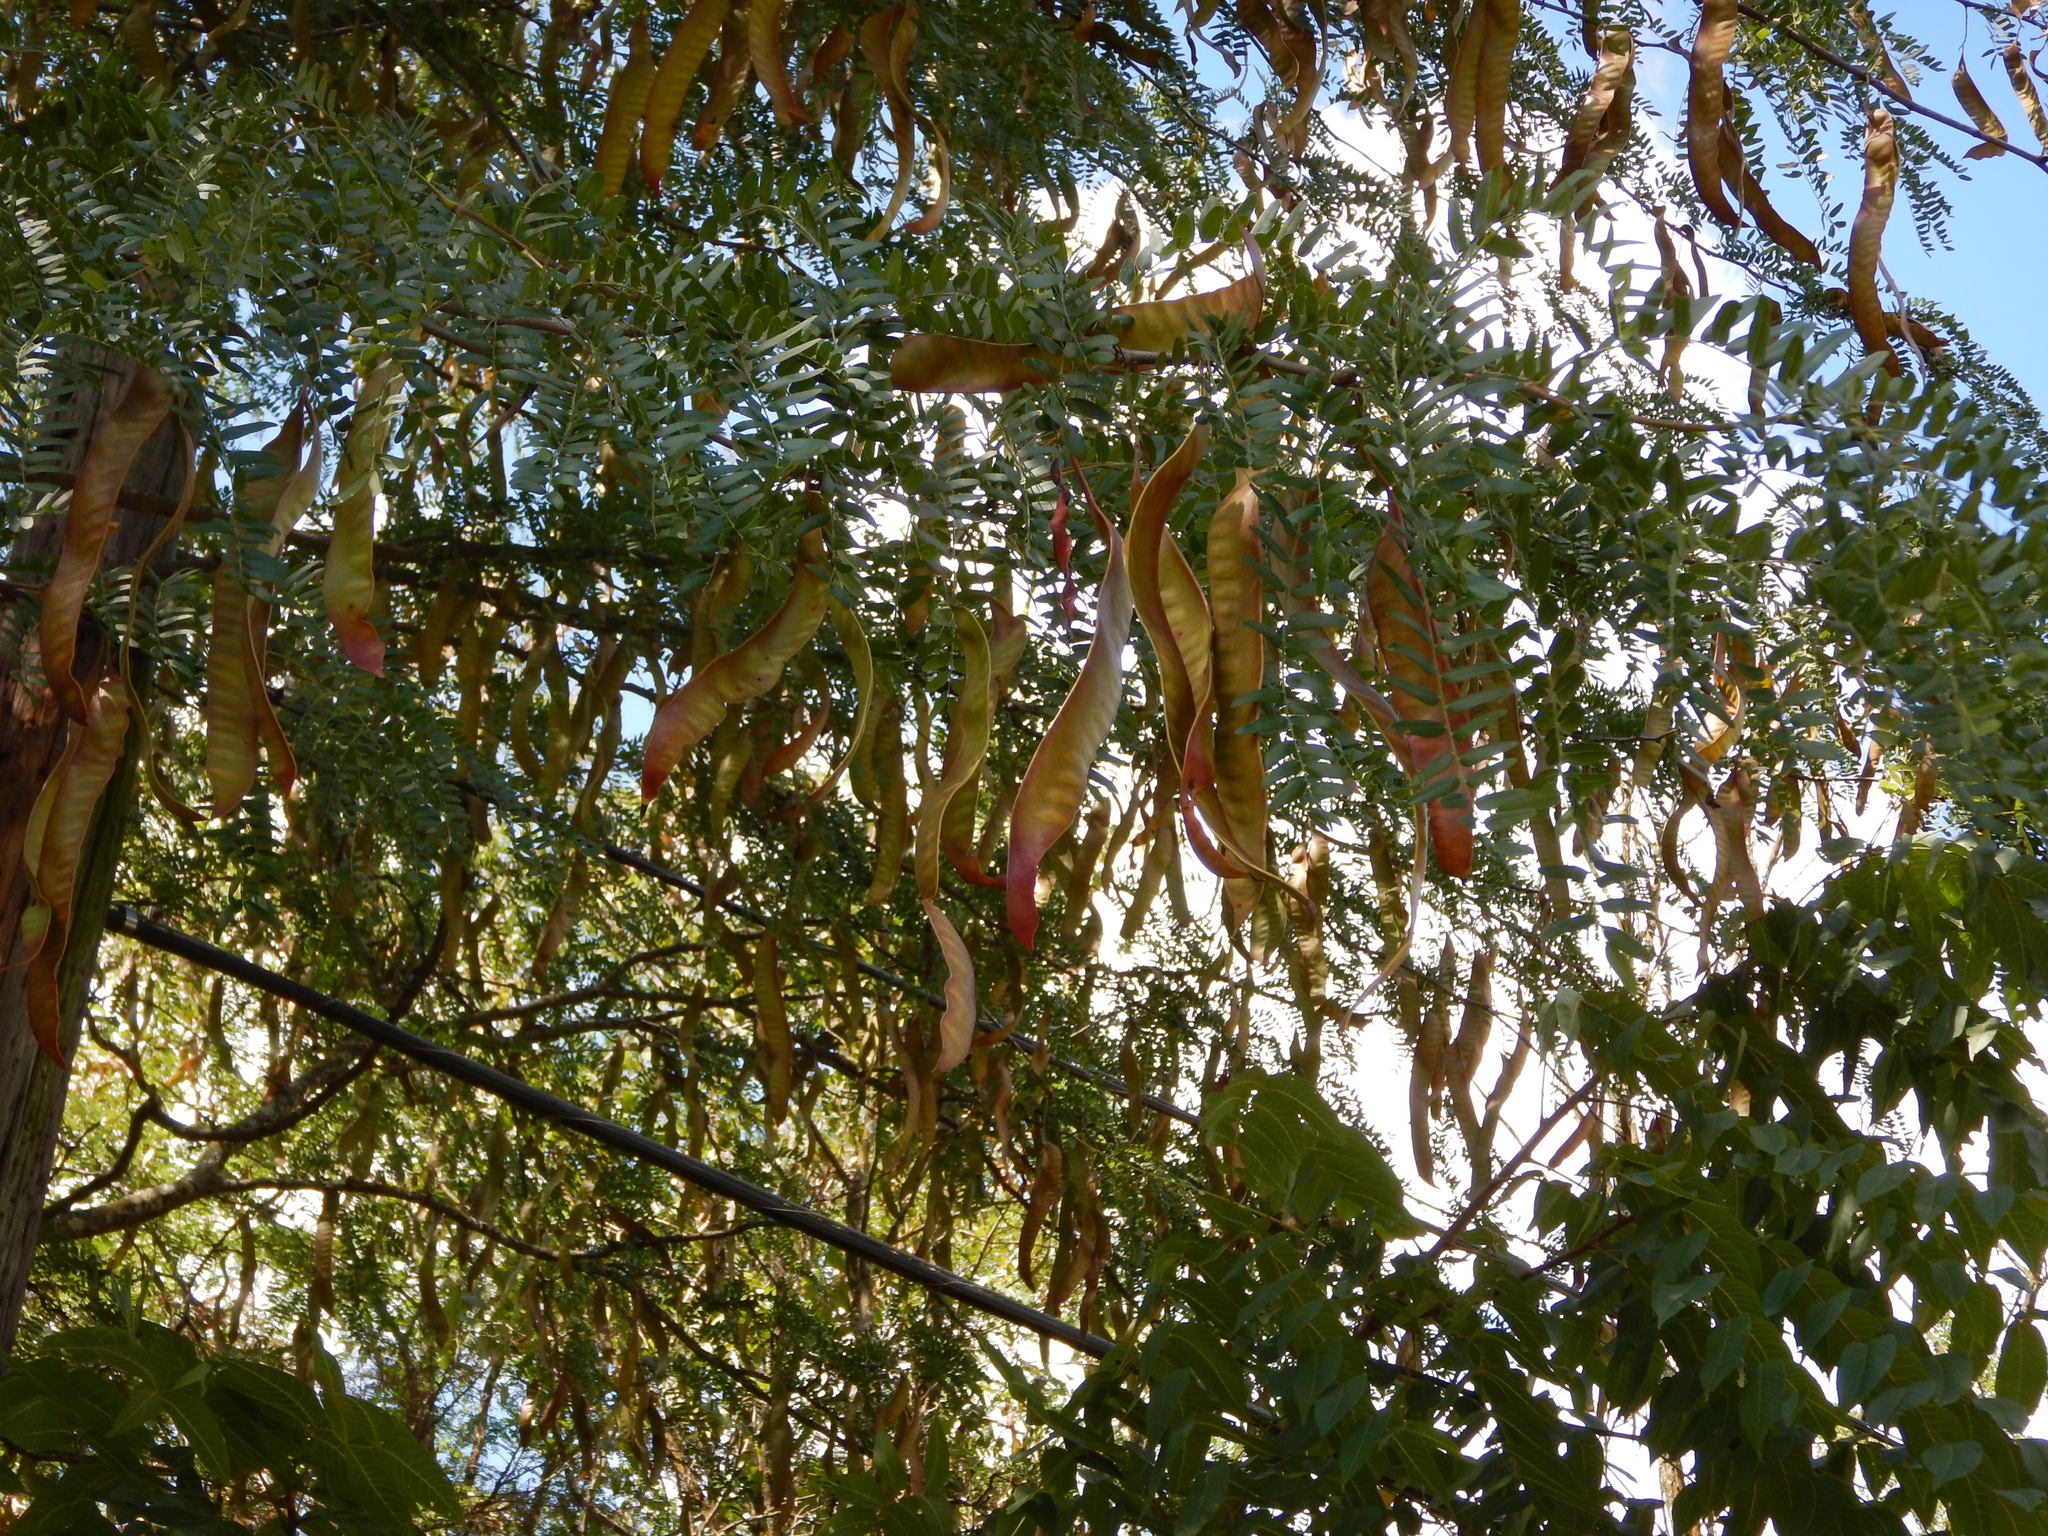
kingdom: Plantae
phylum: Tracheophyta
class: Magnoliopsida
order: Fabales
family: Fabaceae
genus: Gleditsia
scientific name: Gleditsia triacanthos
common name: Common honeylocust
